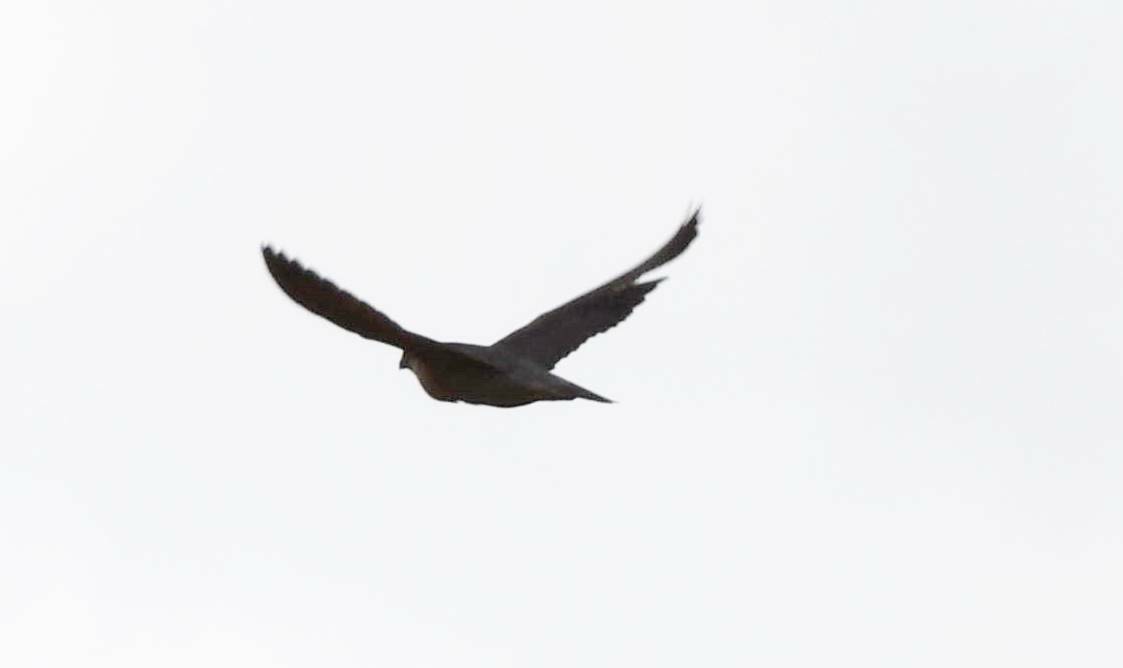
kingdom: Animalia
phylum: Chordata
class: Aves
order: Falconiformes
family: Falconidae
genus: Falco
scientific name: Falco peregrinus
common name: Peregrine falcon
